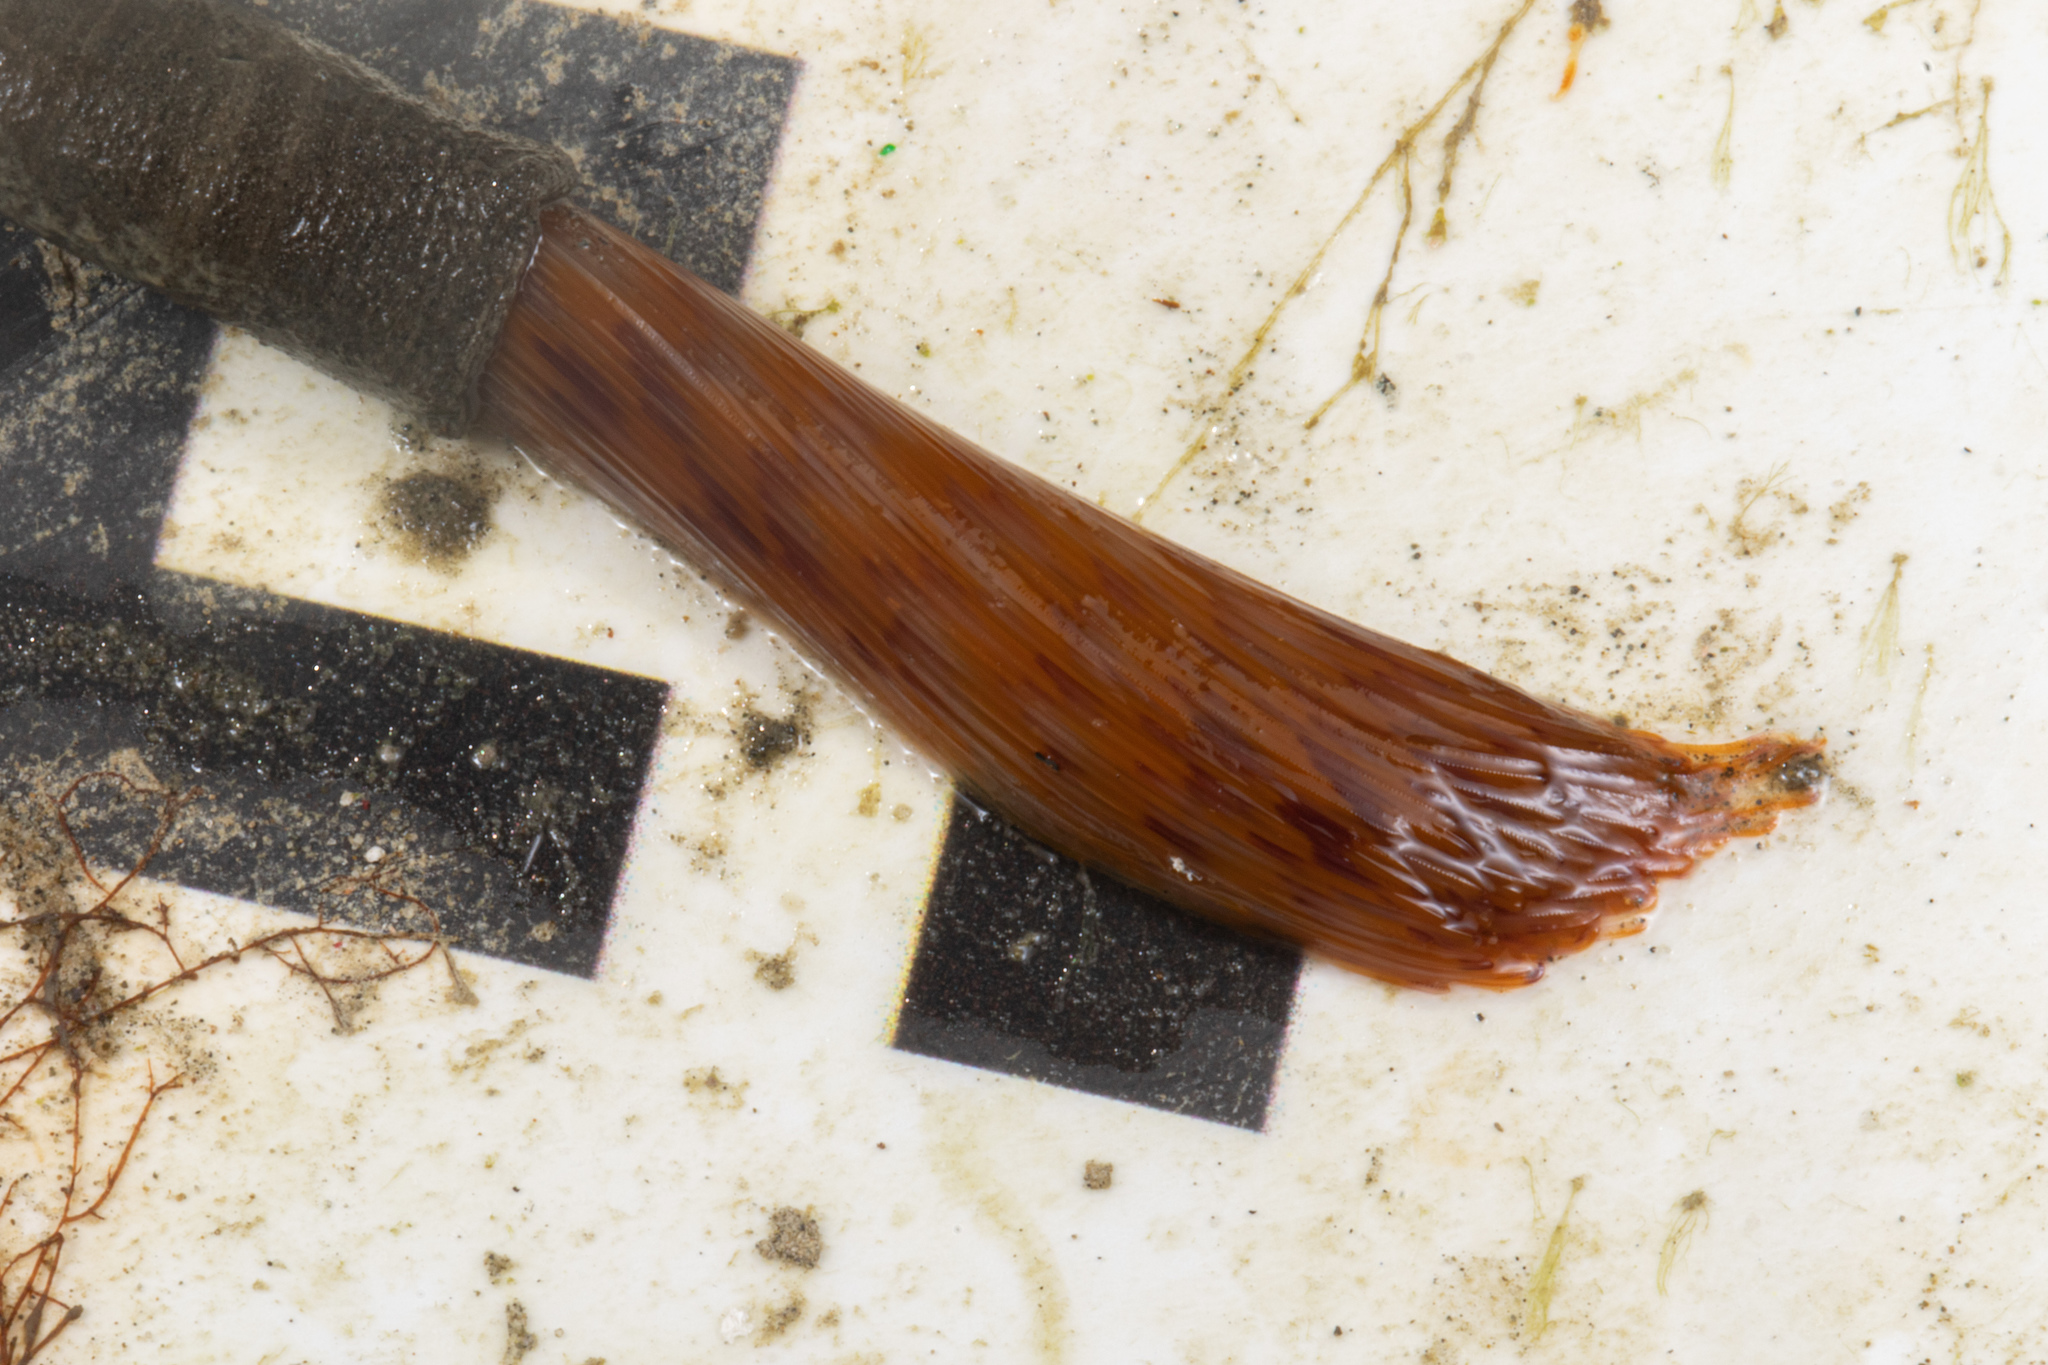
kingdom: Animalia
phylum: Annelida
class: Polychaeta
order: Sabellida
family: Sabellidae
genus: Sabella
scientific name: Sabella spallanzanii
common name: Feather duster worm
